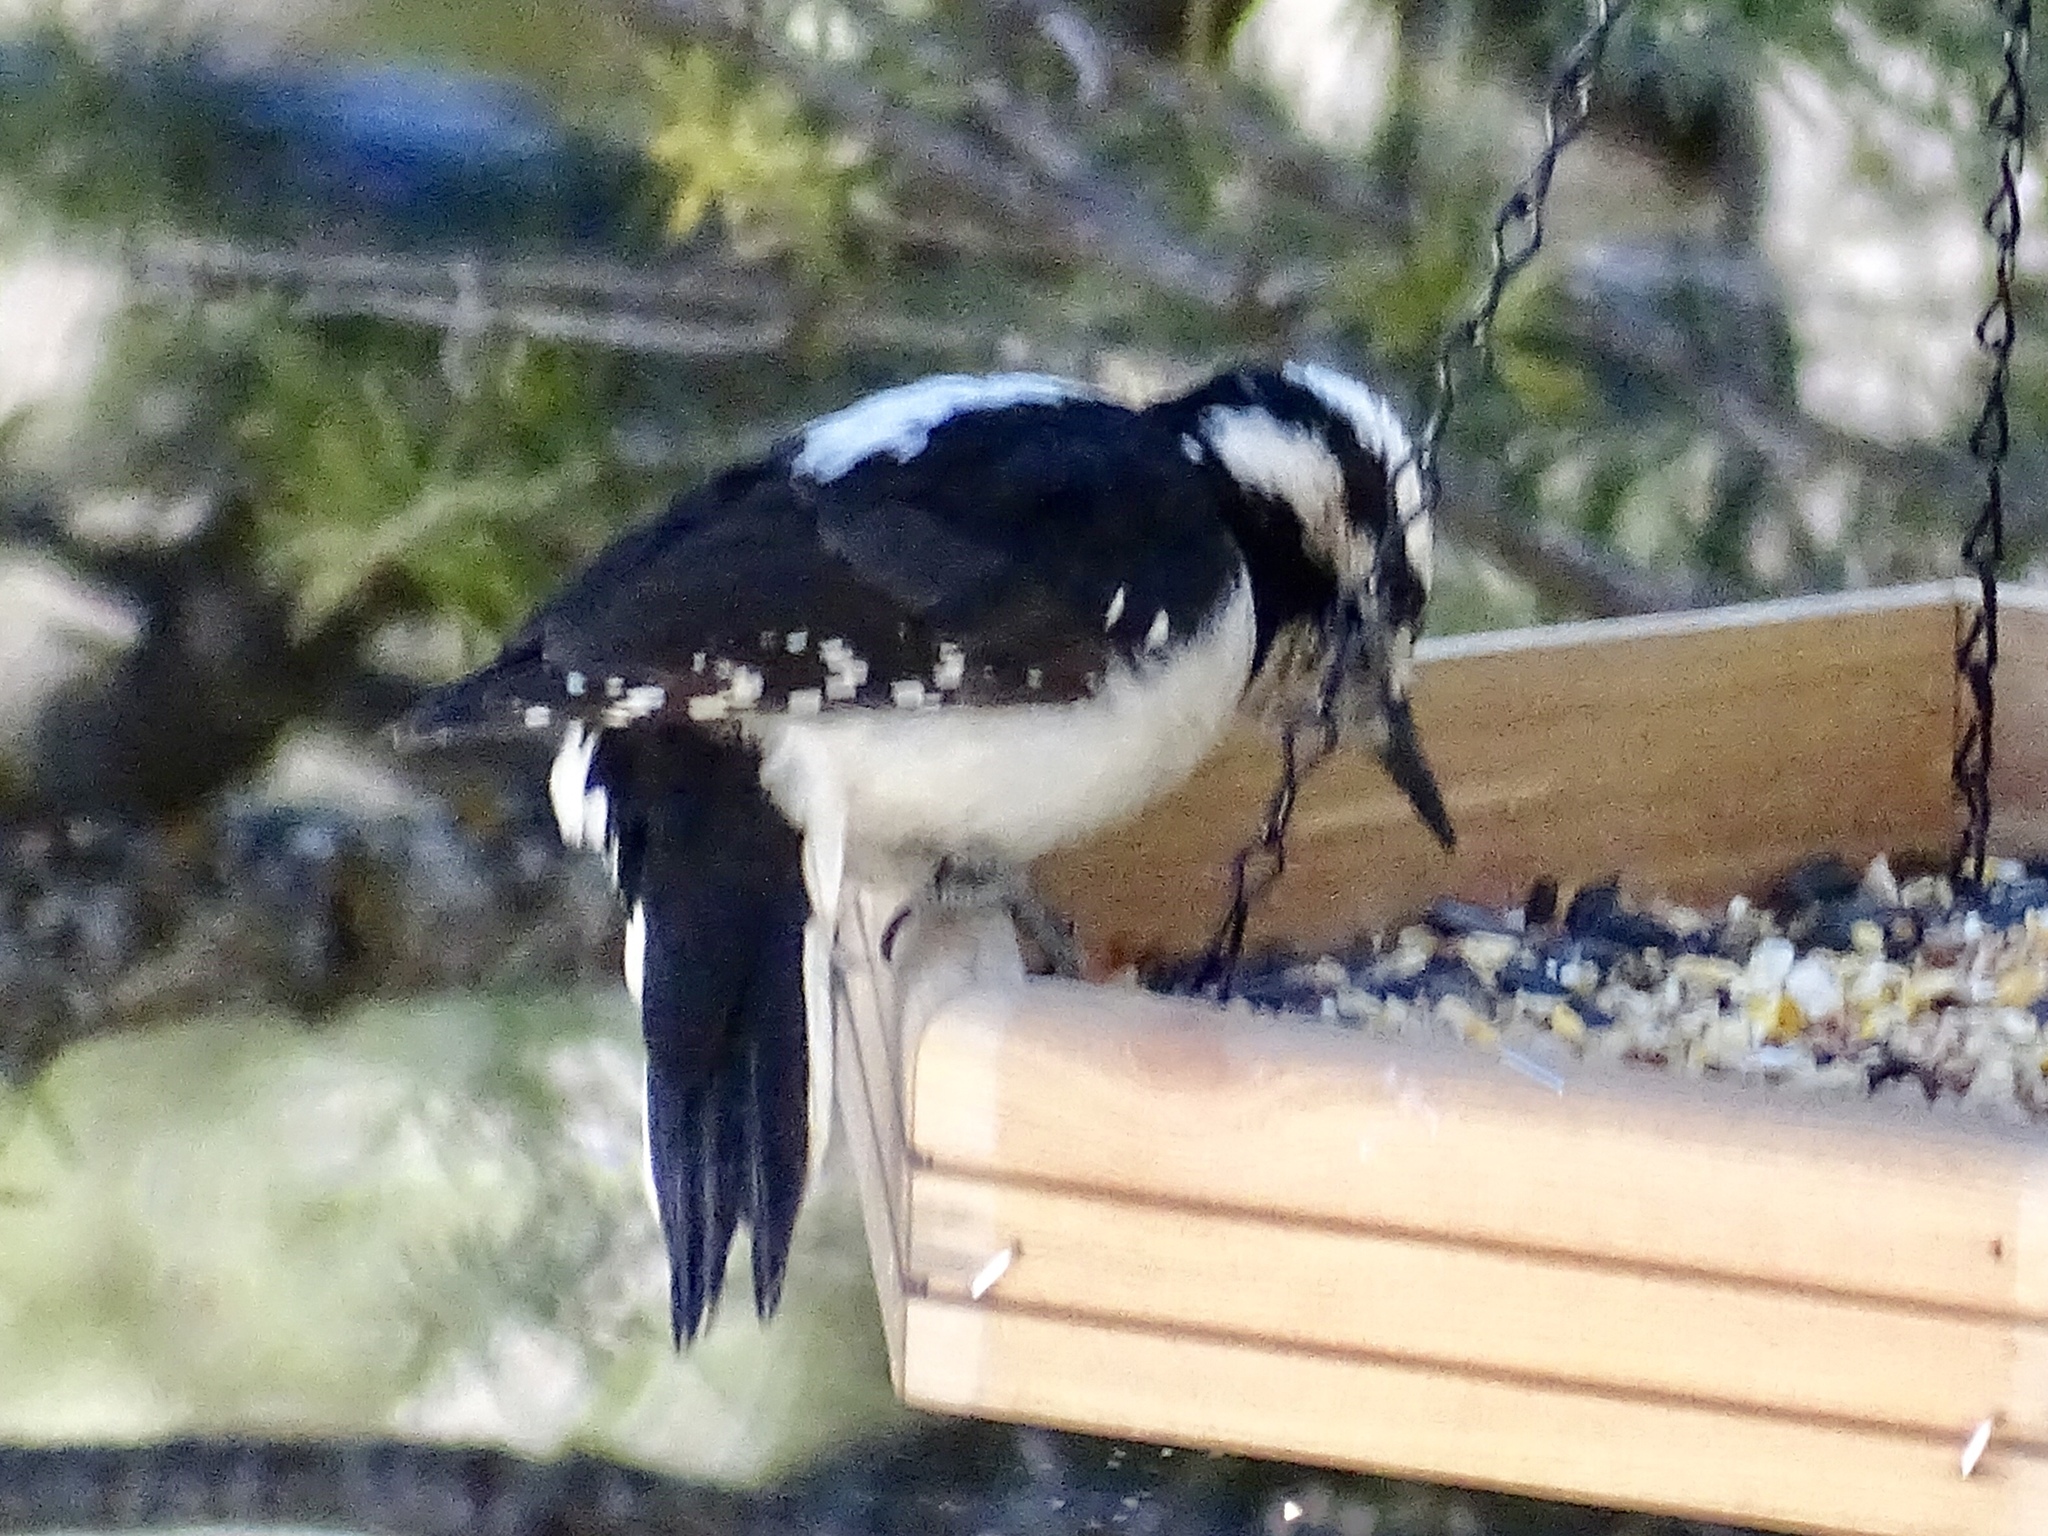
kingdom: Animalia
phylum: Chordata
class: Aves
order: Piciformes
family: Picidae
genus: Leuconotopicus
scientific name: Leuconotopicus villosus
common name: Hairy woodpecker
